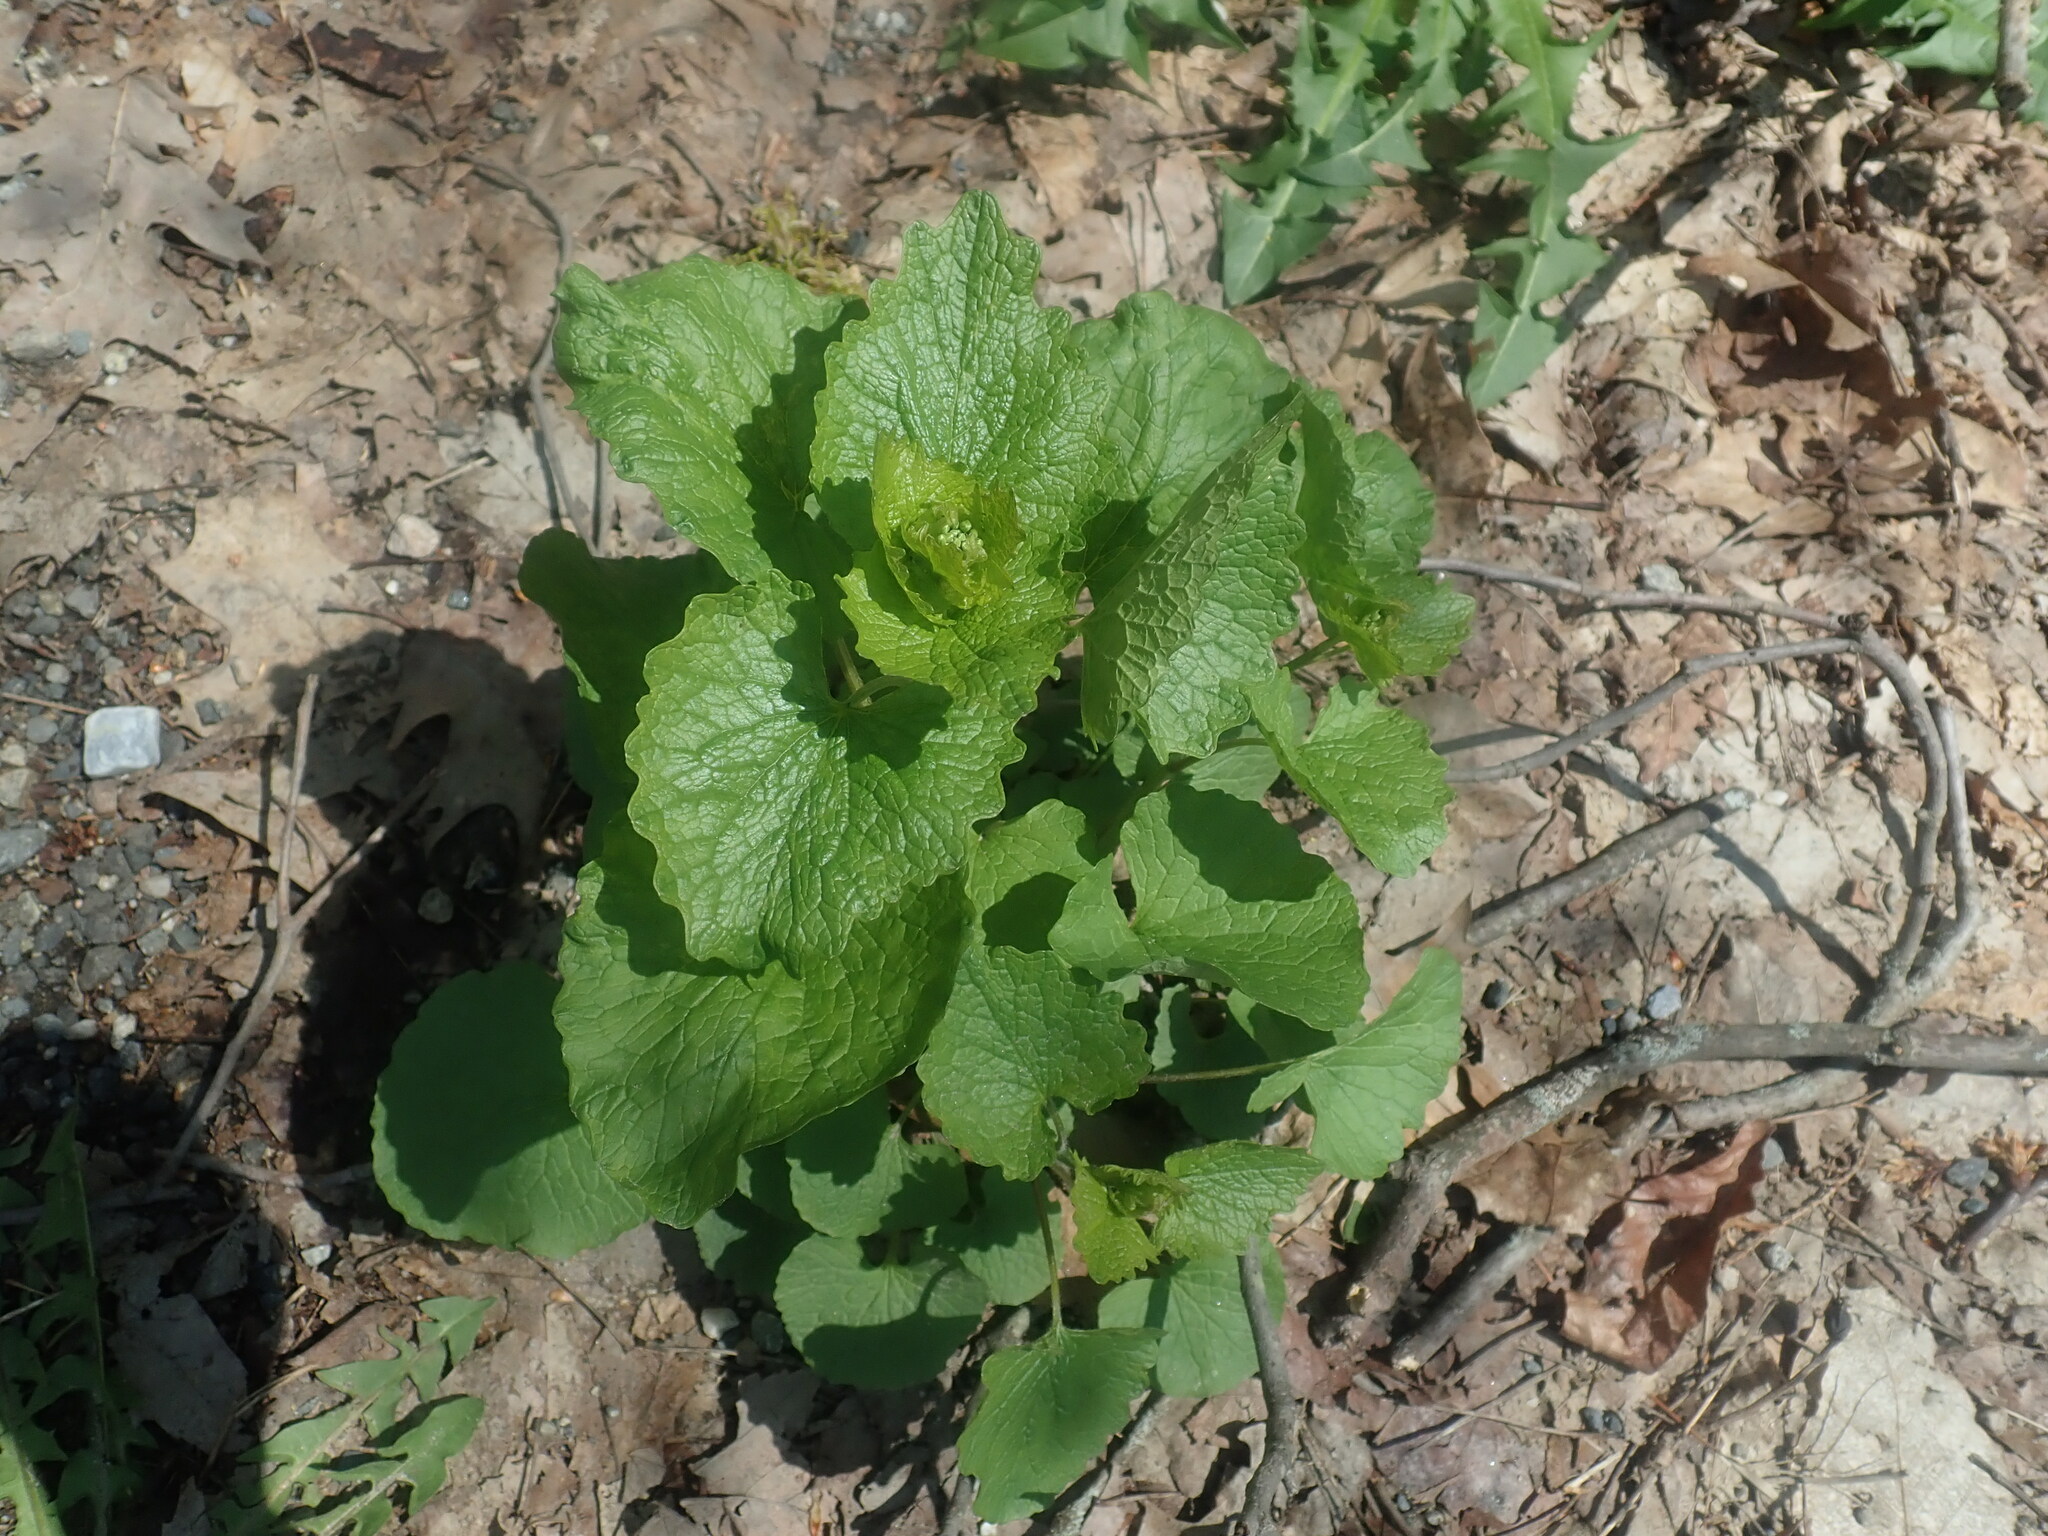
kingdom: Plantae
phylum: Tracheophyta
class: Magnoliopsida
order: Brassicales
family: Brassicaceae
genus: Alliaria
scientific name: Alliaria petiolata
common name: Garlic mustard
